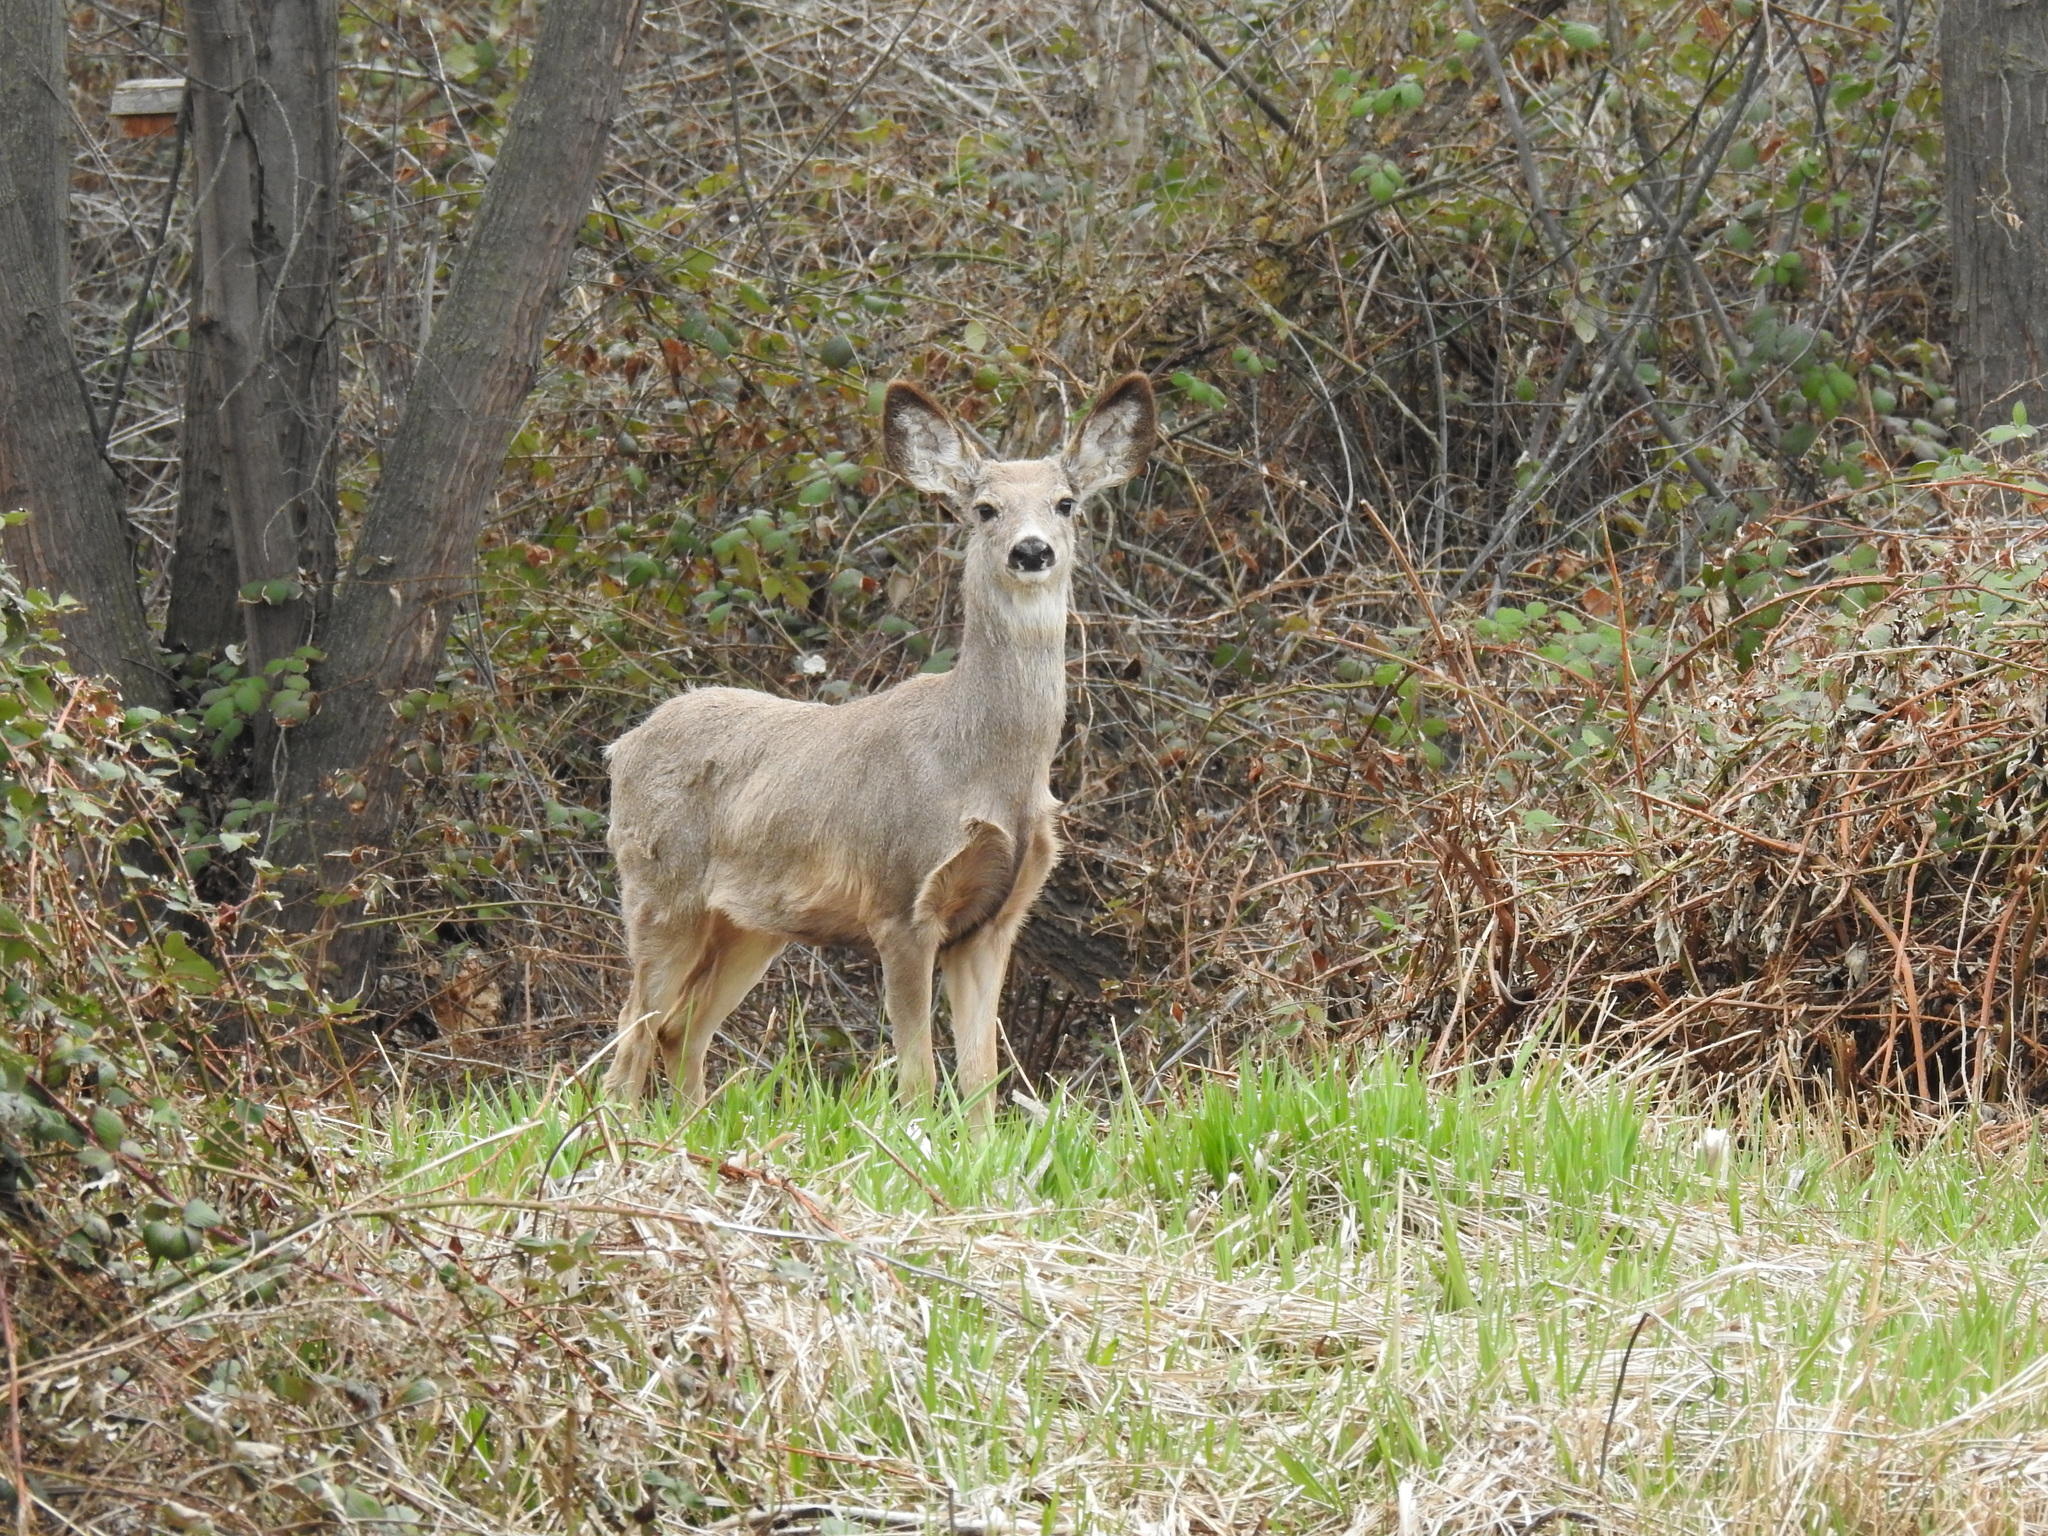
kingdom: Animalia
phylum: Chordata
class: Mammalia
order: Artiodactyla
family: Cervidae
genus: Odocoileus
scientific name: Odocoileus hemionus
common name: Mule deer
